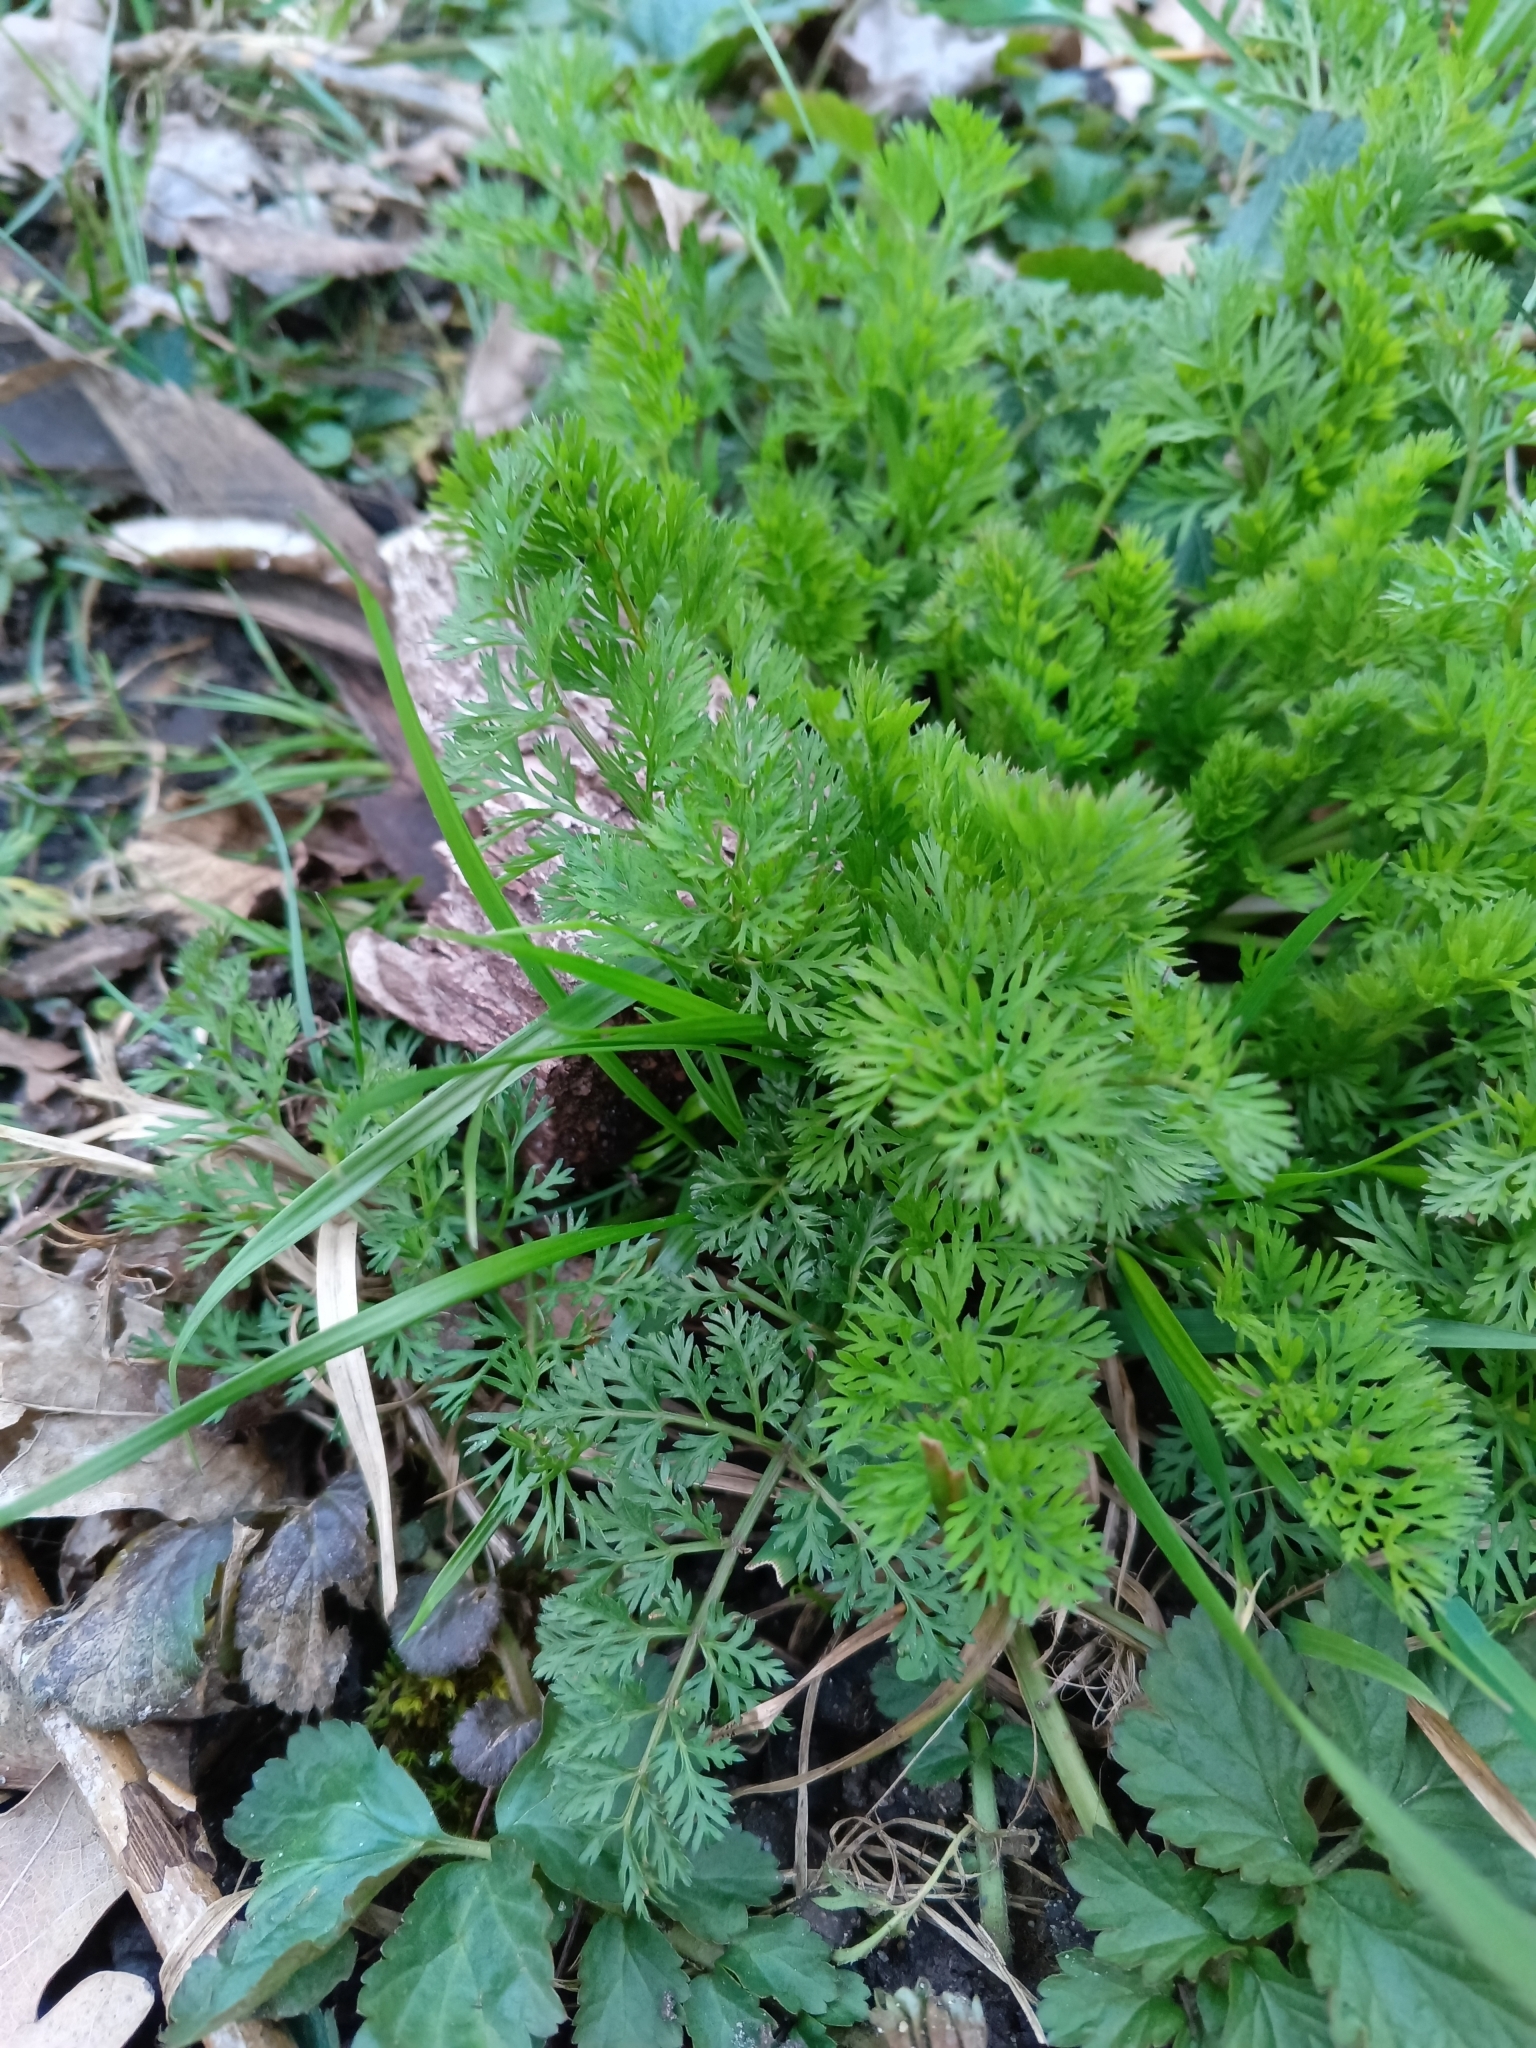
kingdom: Plantae
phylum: Tracheophyta
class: Magnoliopsida
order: Apiales
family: Apiaceae
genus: Daucus
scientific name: Daucus carota
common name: Wild carrot
